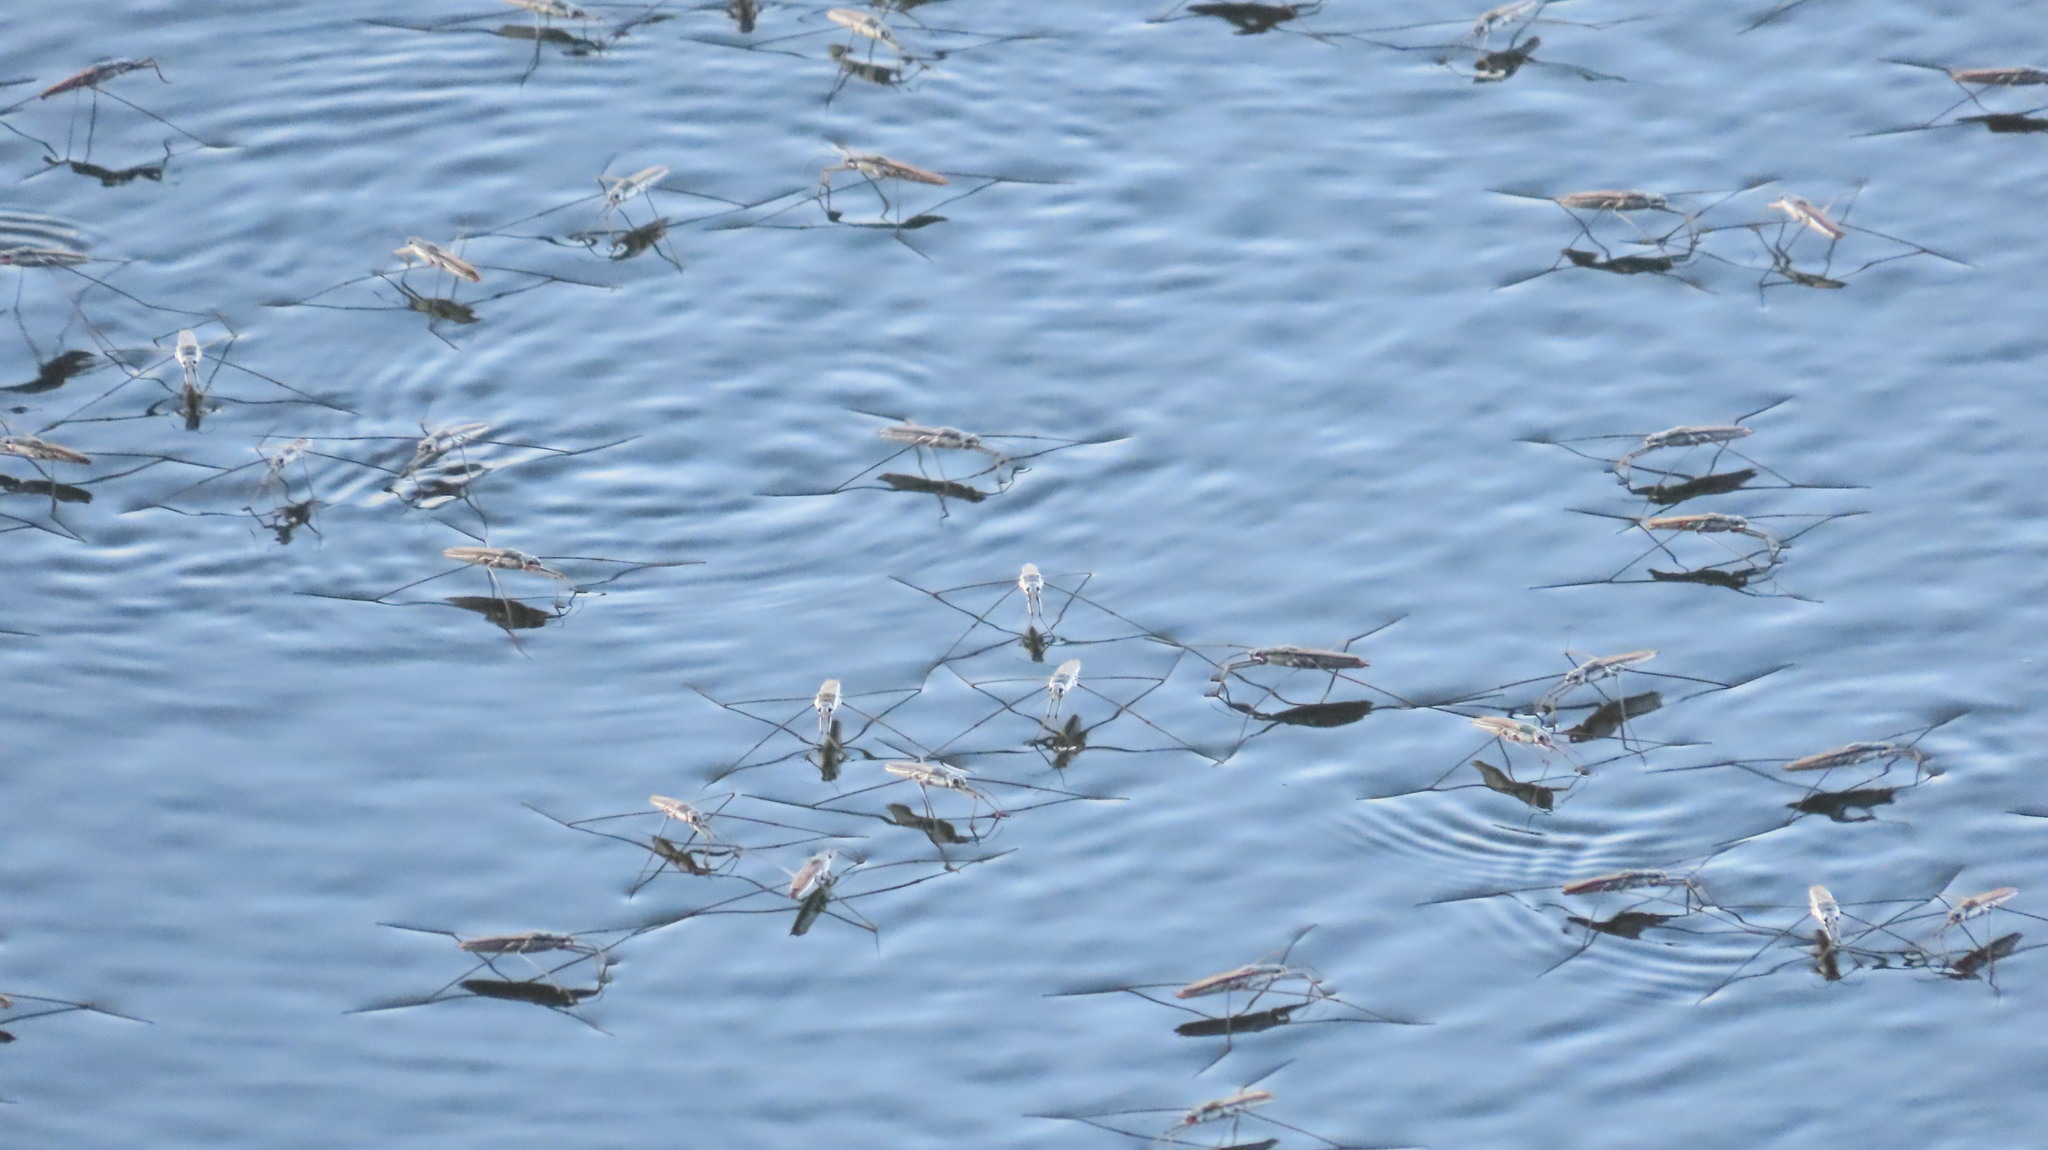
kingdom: Animalia
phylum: Arthropoda
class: Insecta
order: Hemiptera
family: Gerridae
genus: Aquarius
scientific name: Aquarius adelaidis
